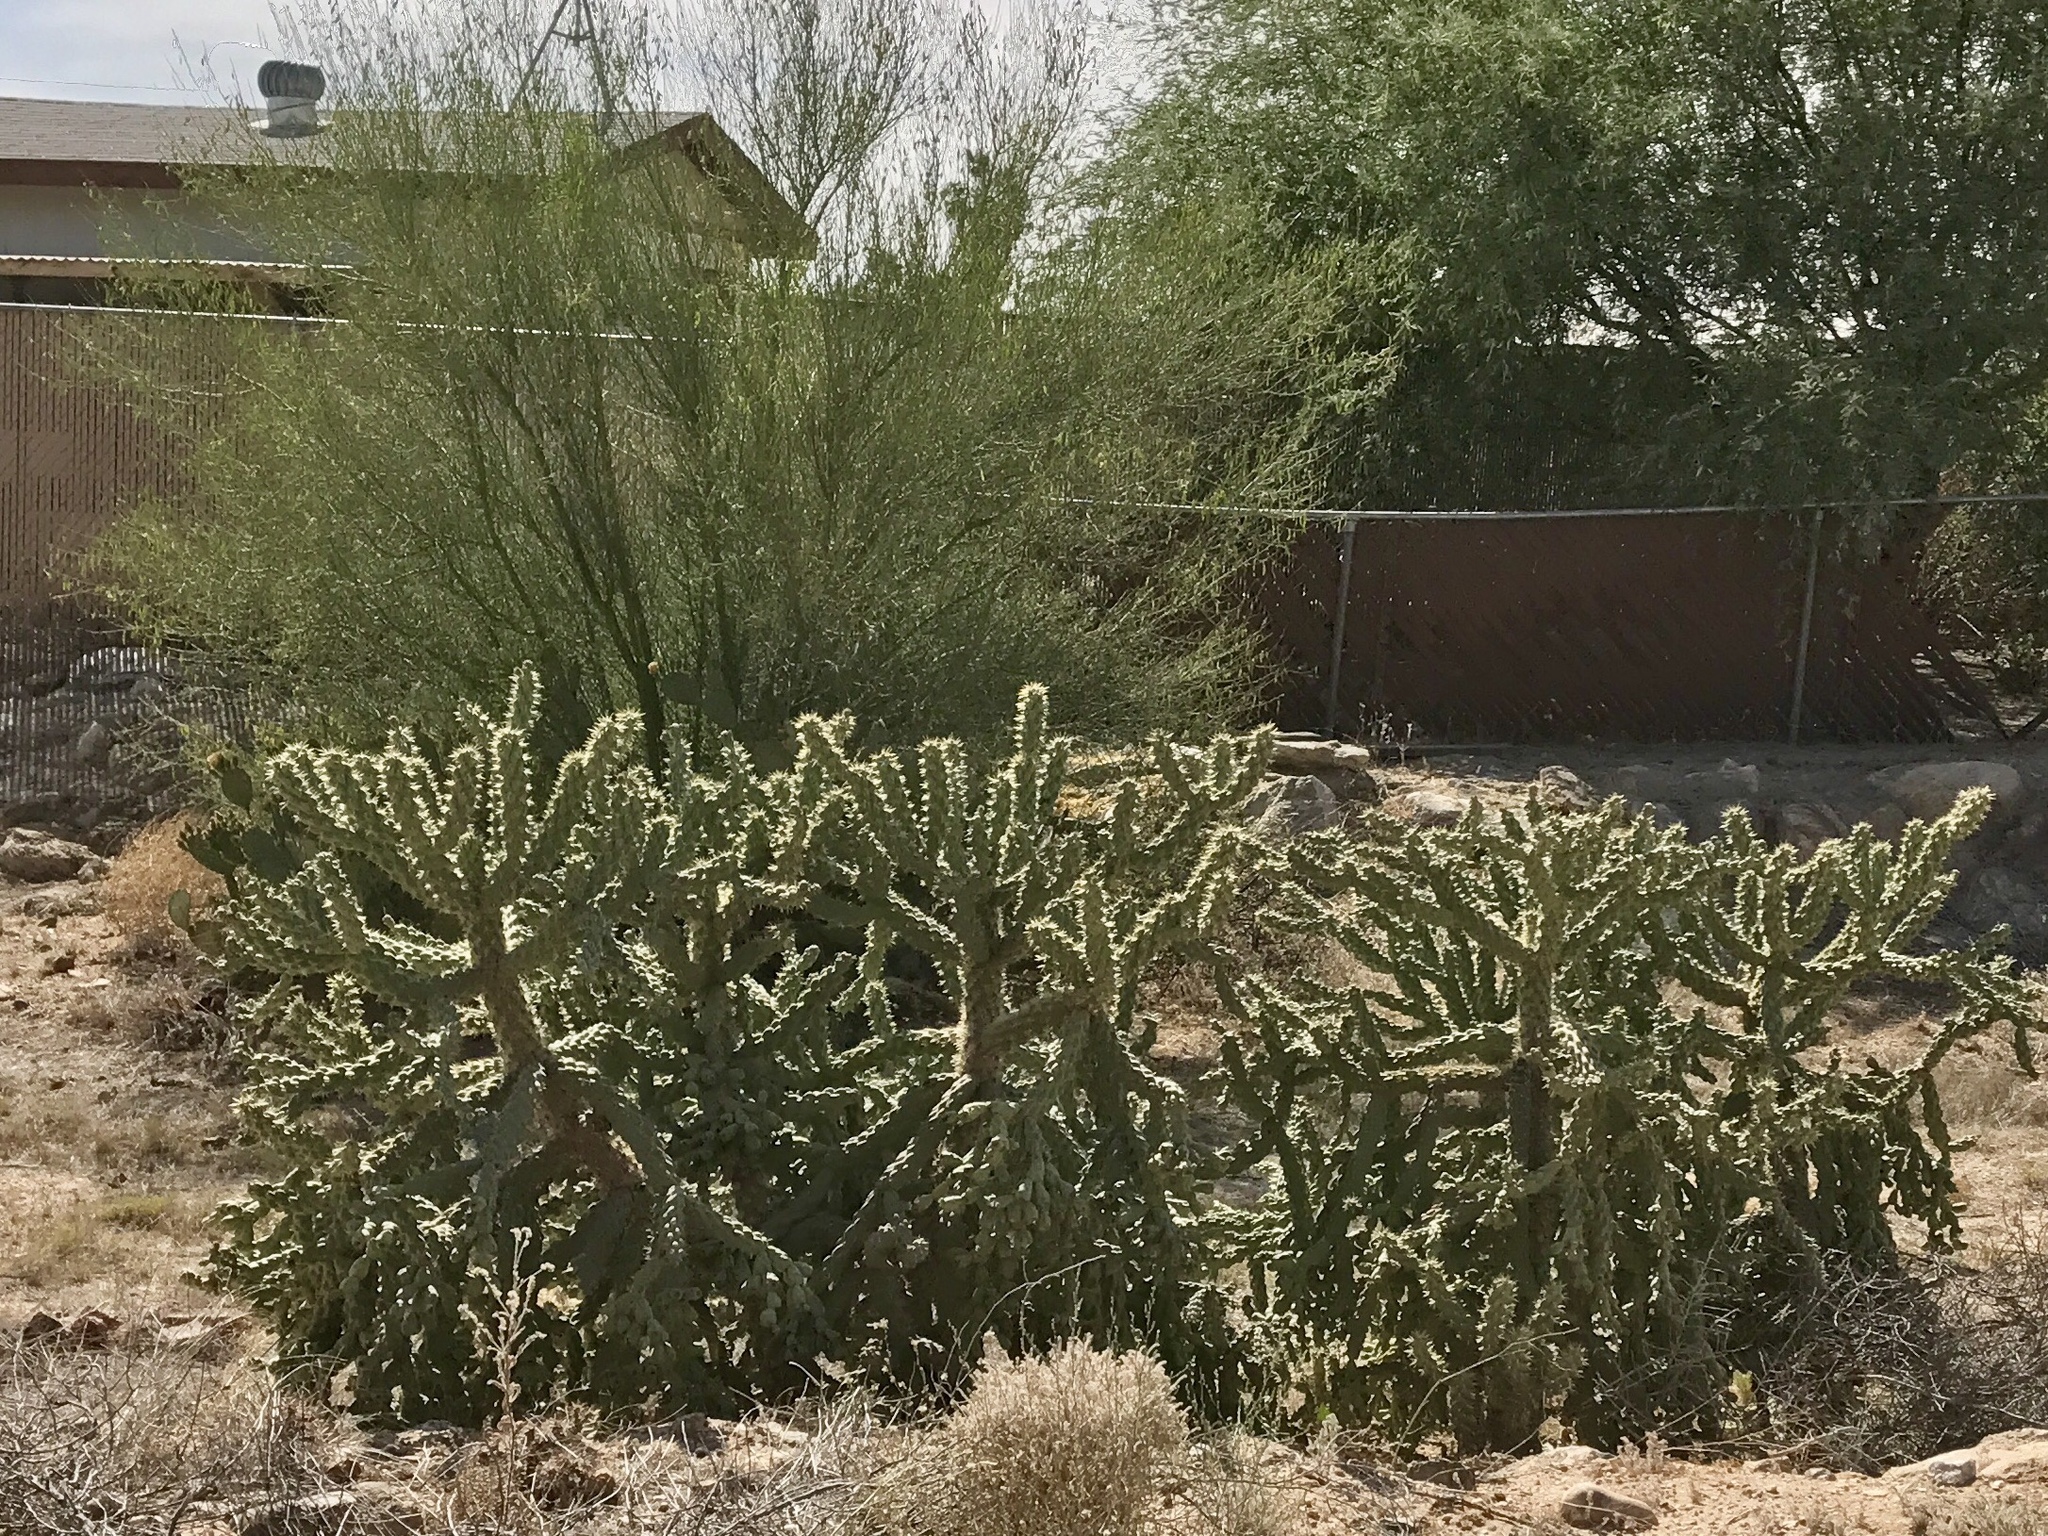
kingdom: Plantae
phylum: Tracheophyta
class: Magnoliopsida
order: Caryophyllales
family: Cactaceae
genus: Cylindropuntia
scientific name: Cylindropuntia fulgida
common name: Jumping cholla
